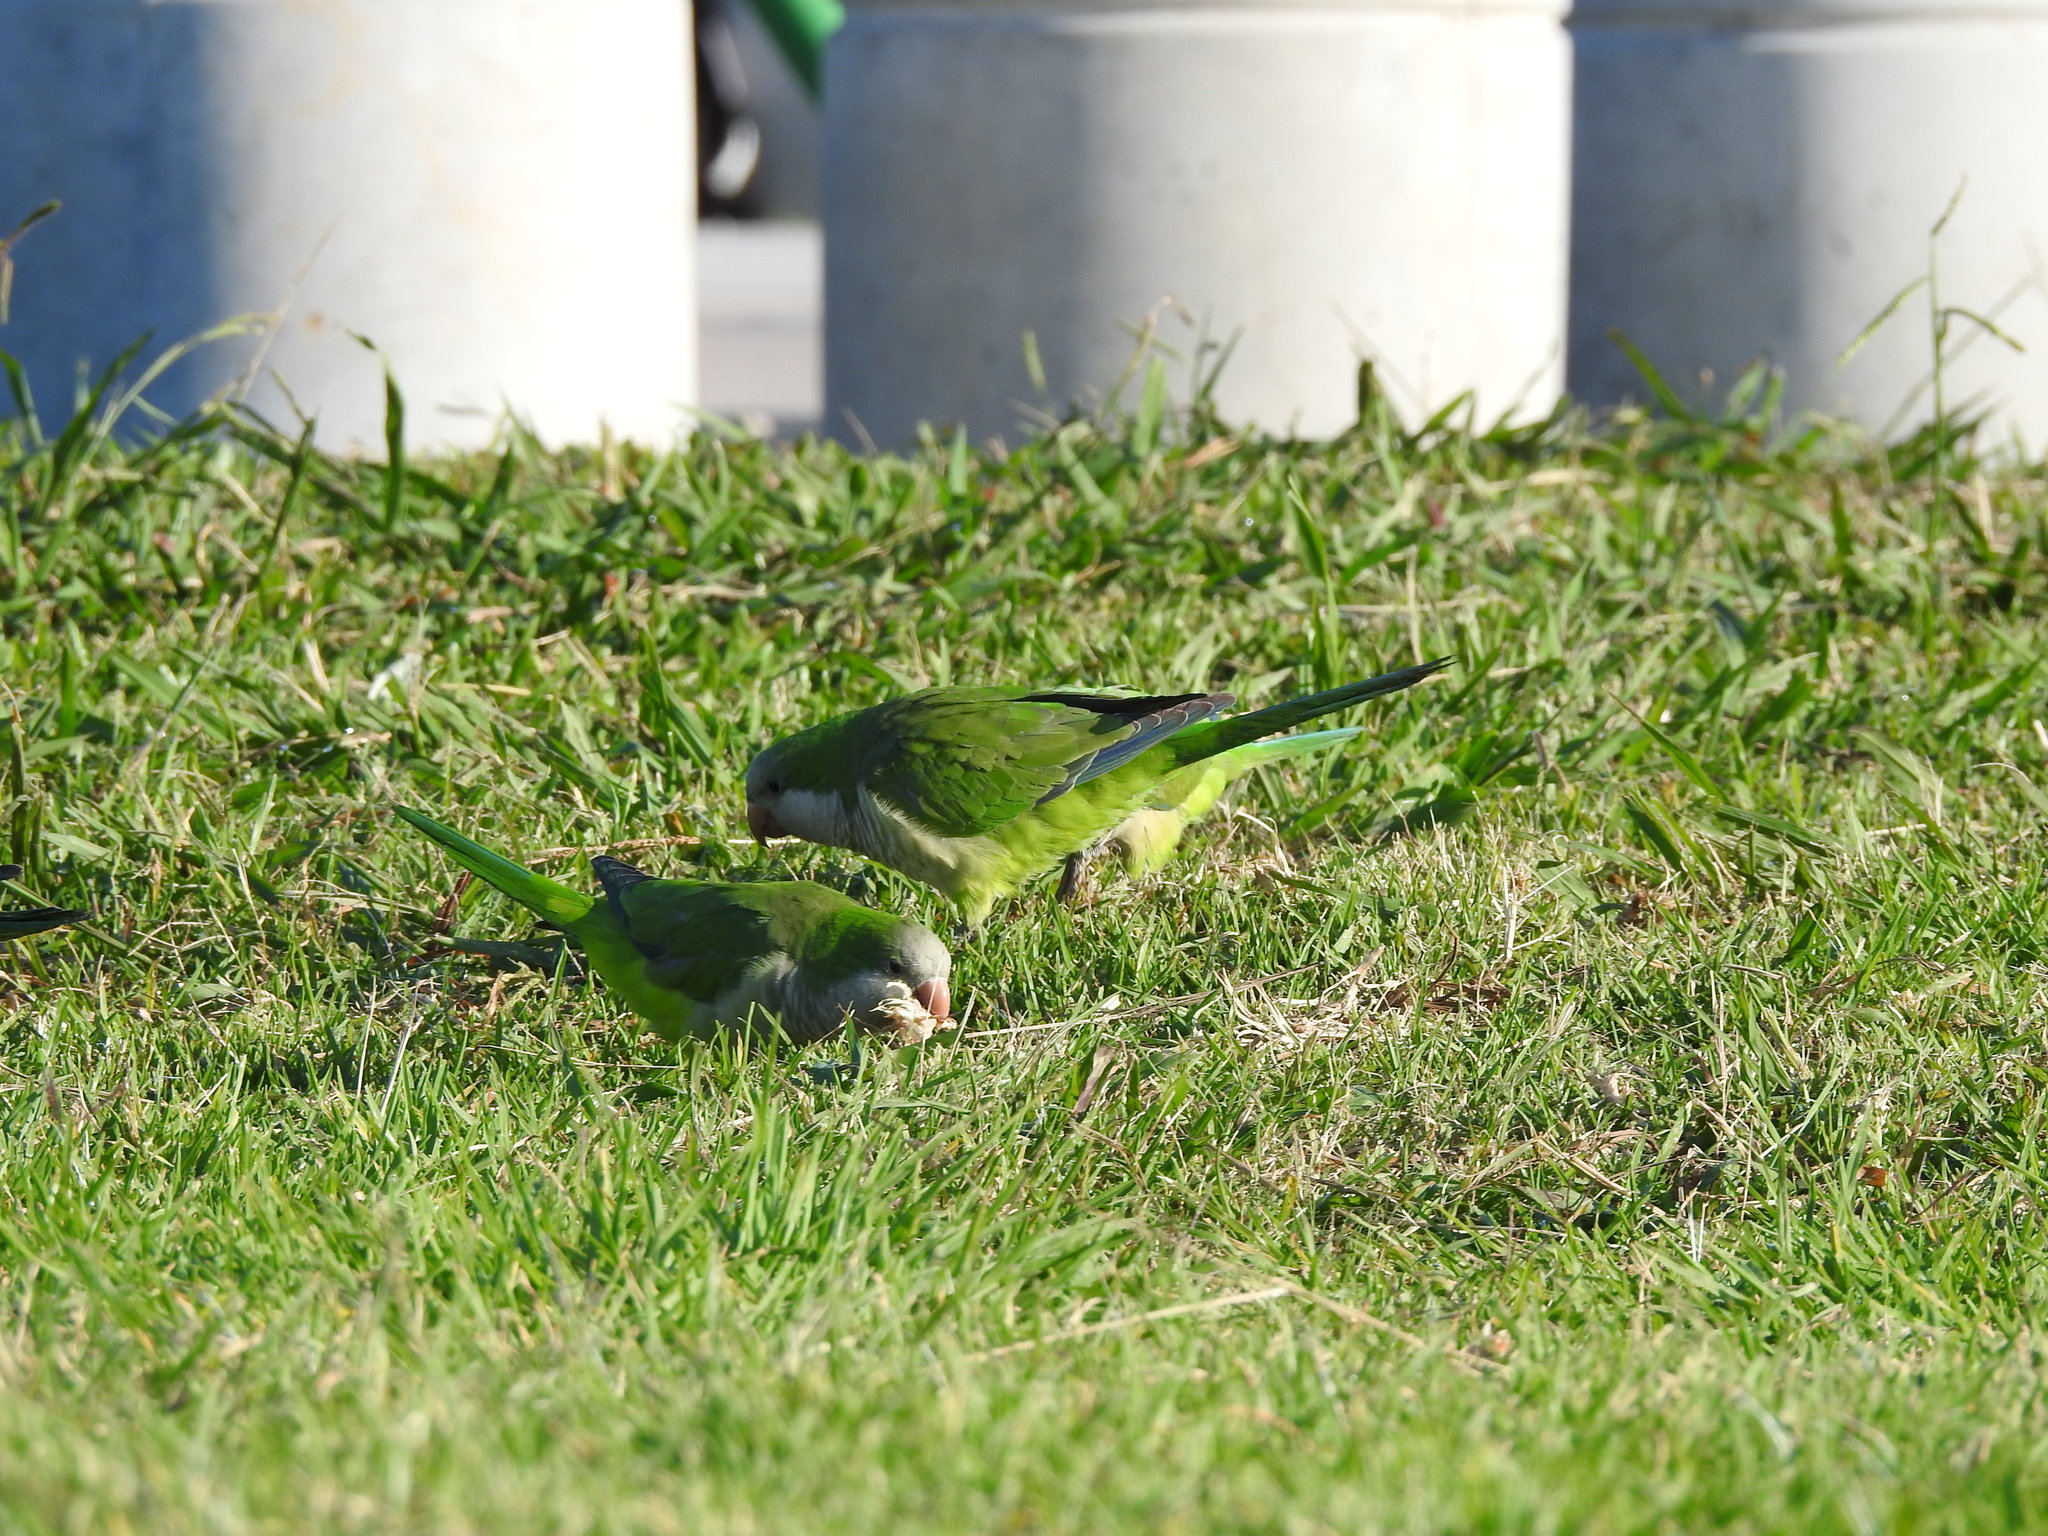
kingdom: Animalia
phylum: Chordata
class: Aves
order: Psittaciformes
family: Psittacidae
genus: Myiopsitta
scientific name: Myiopsitta monachus
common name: Monk parakeet
